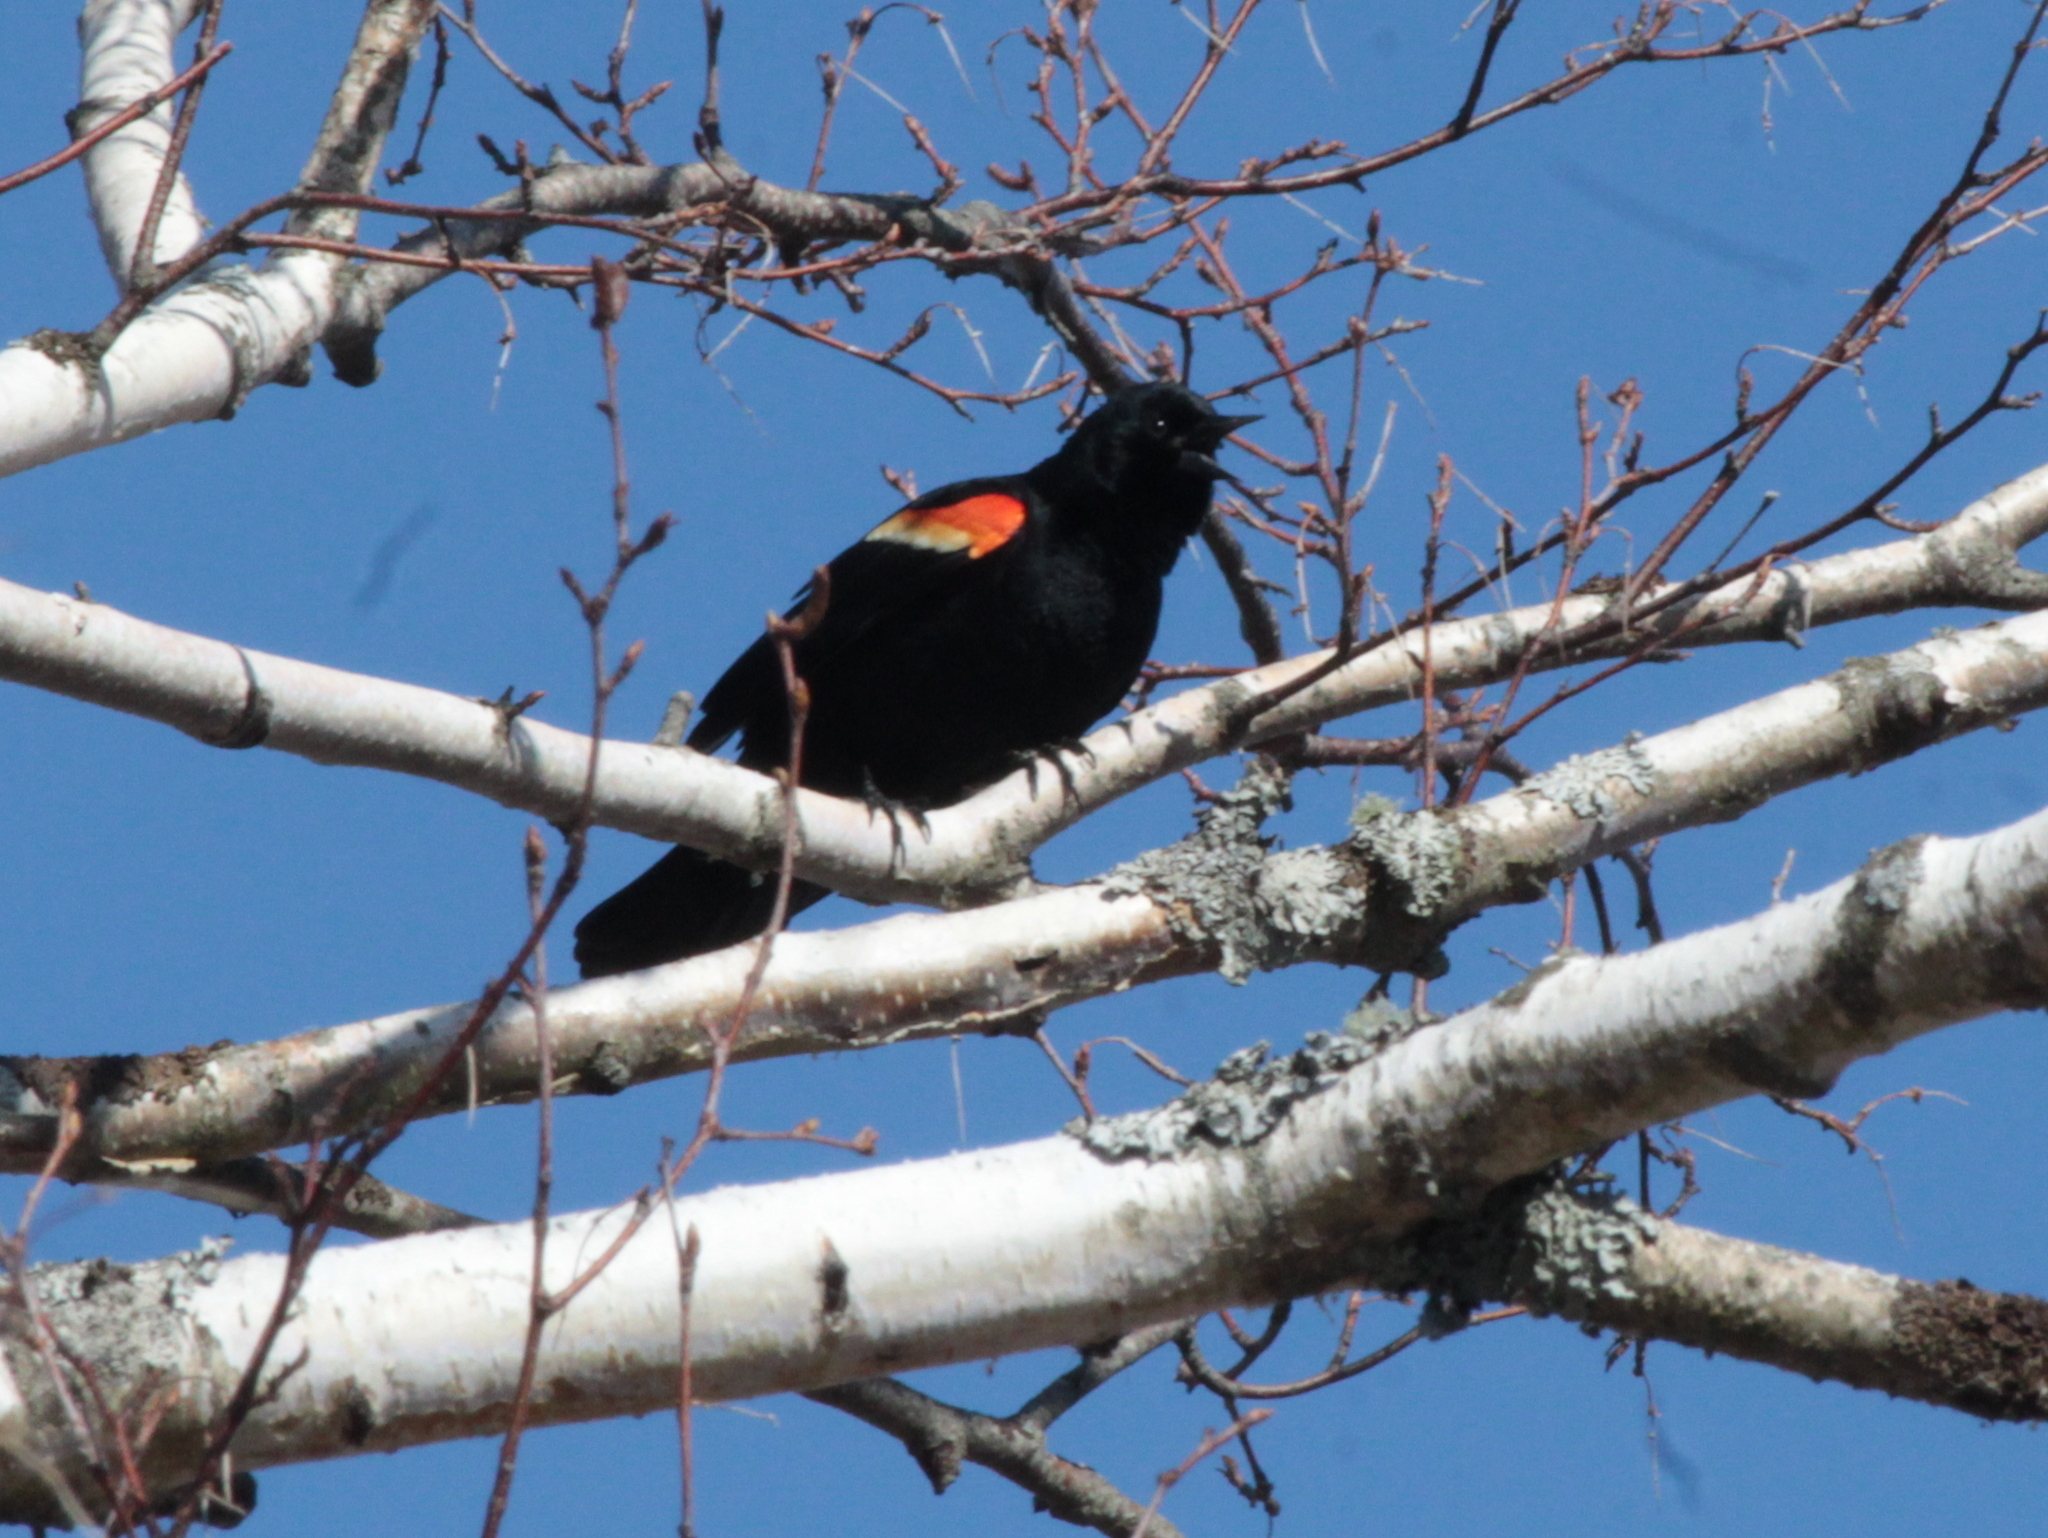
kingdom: Animalia
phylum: Chordata
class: Aves
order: Passeriformes
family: Icteridae
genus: Agelaius
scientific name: Agelaius phoeniceus
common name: Red-winged blackbird
